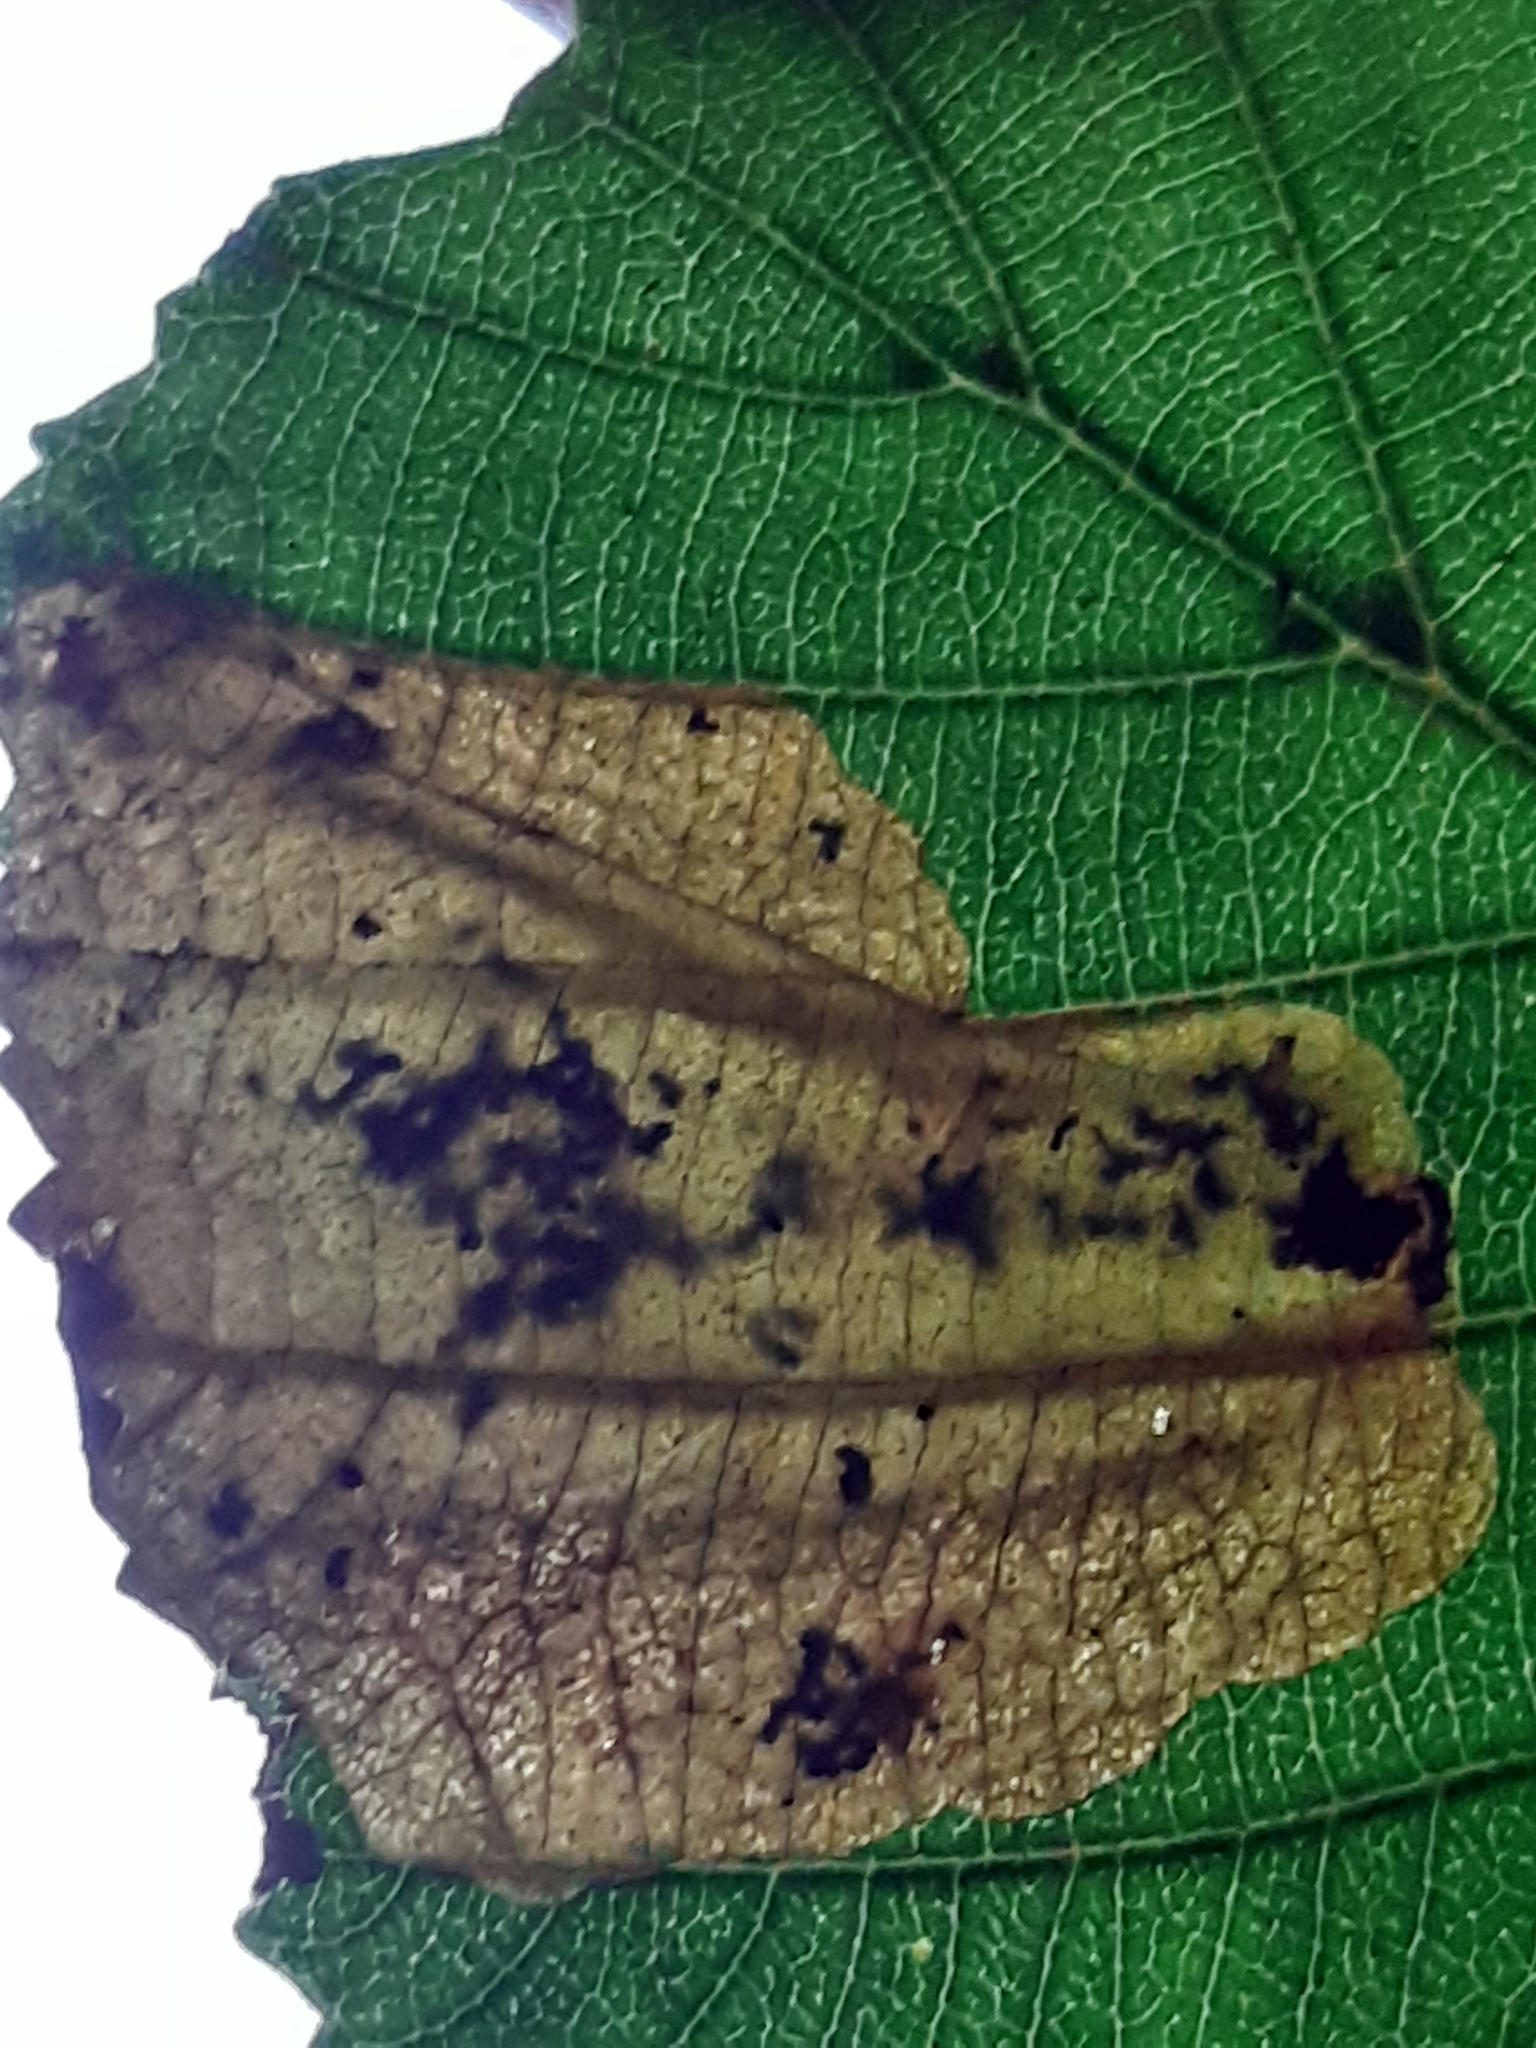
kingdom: Animalia
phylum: Arthropoda
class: Insecta
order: Hymenoptera
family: Tenthredinidae
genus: Fenusa
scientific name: Fenusa dohrnii
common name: European alder leafminer
